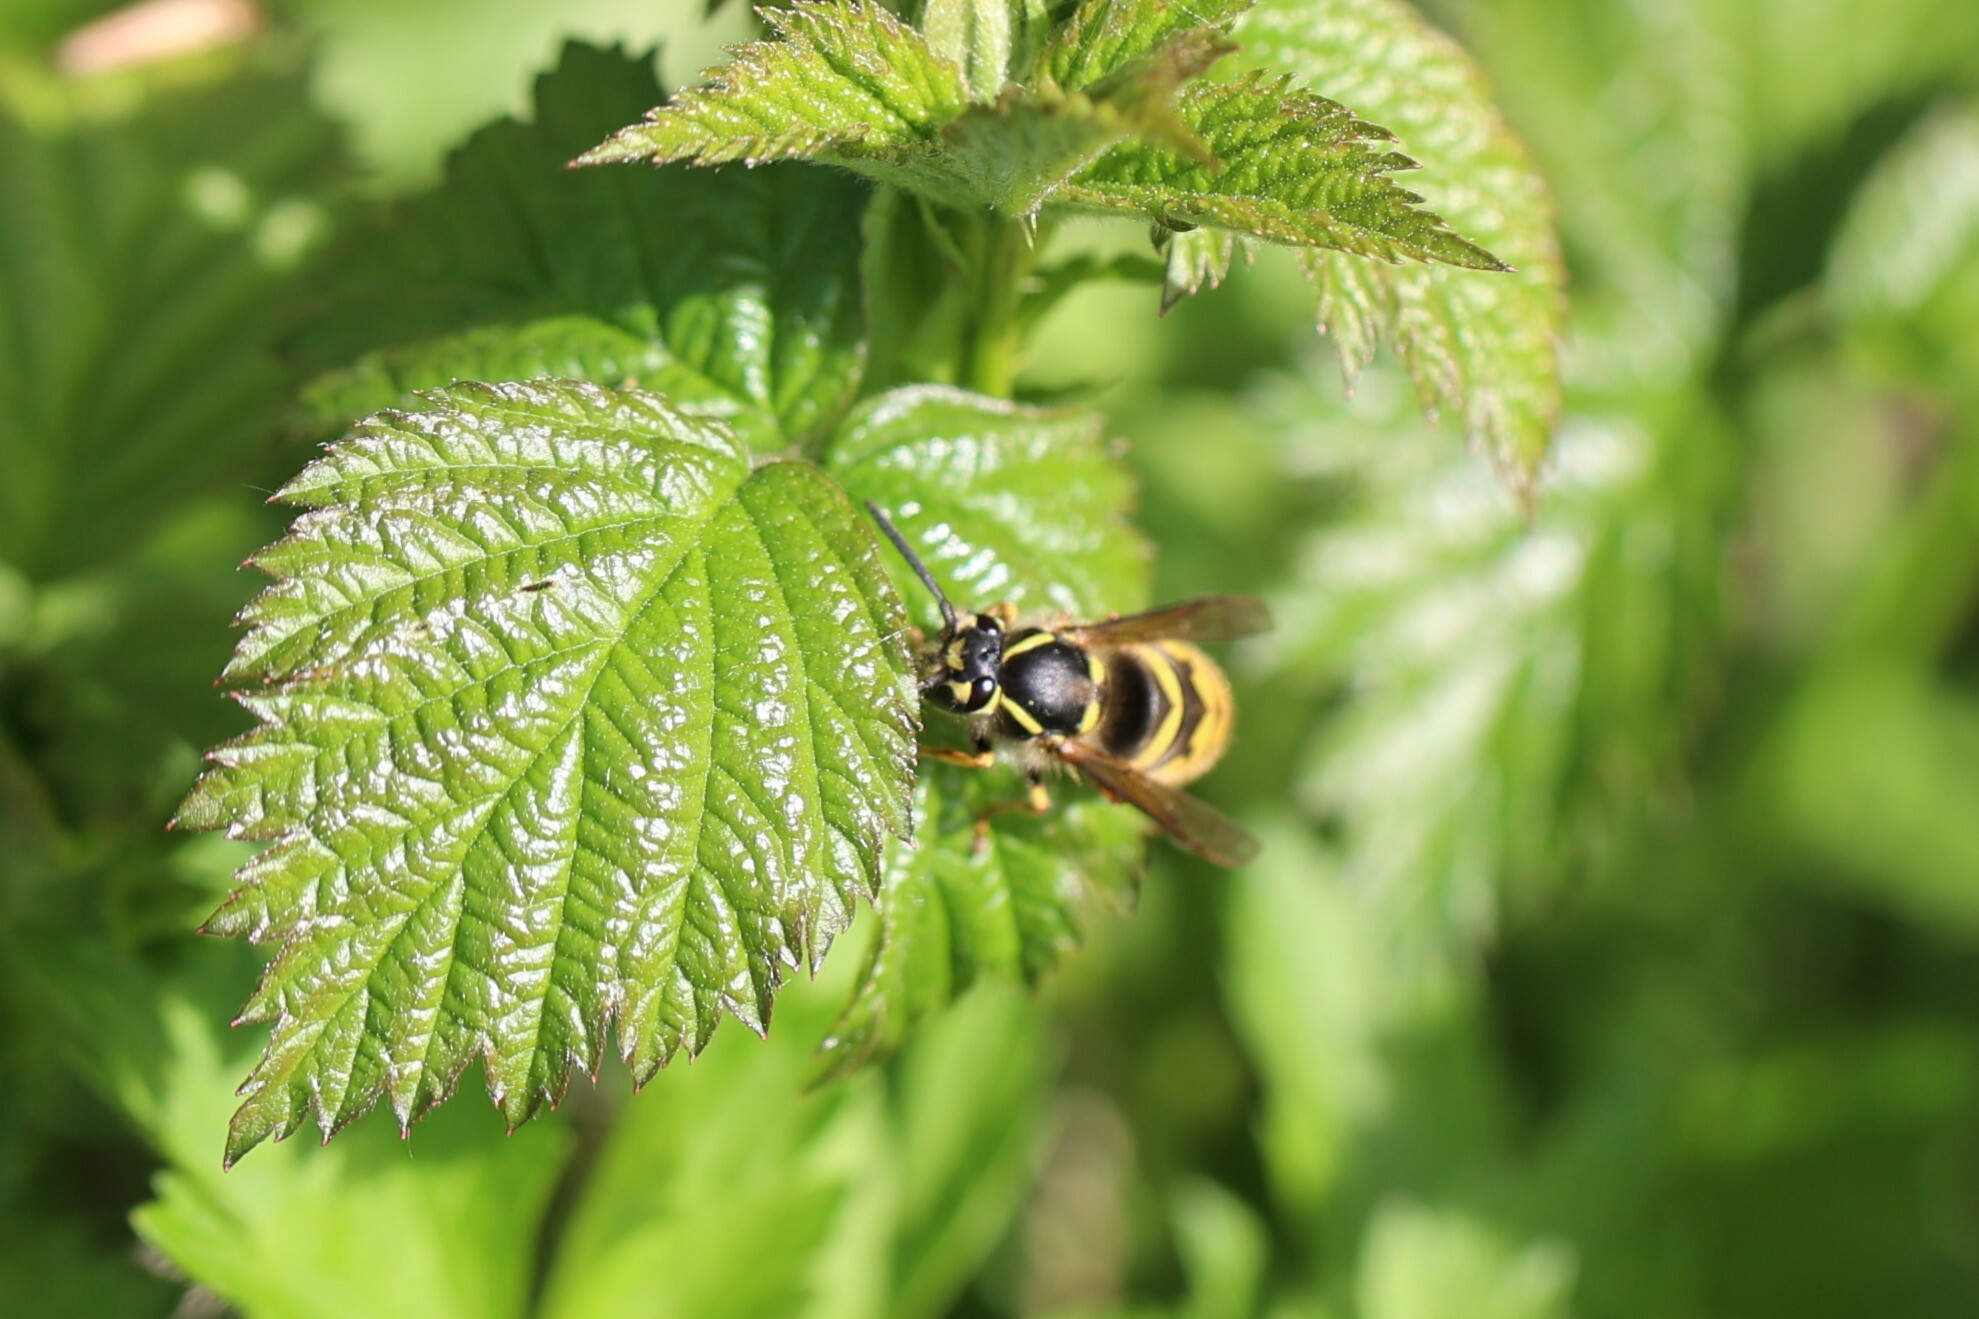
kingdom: Animalia
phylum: Arthropoda
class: Insecta
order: Hymenoptera
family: Vespidae
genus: Vespula
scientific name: Vespula vulgaris
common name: Common wasp
